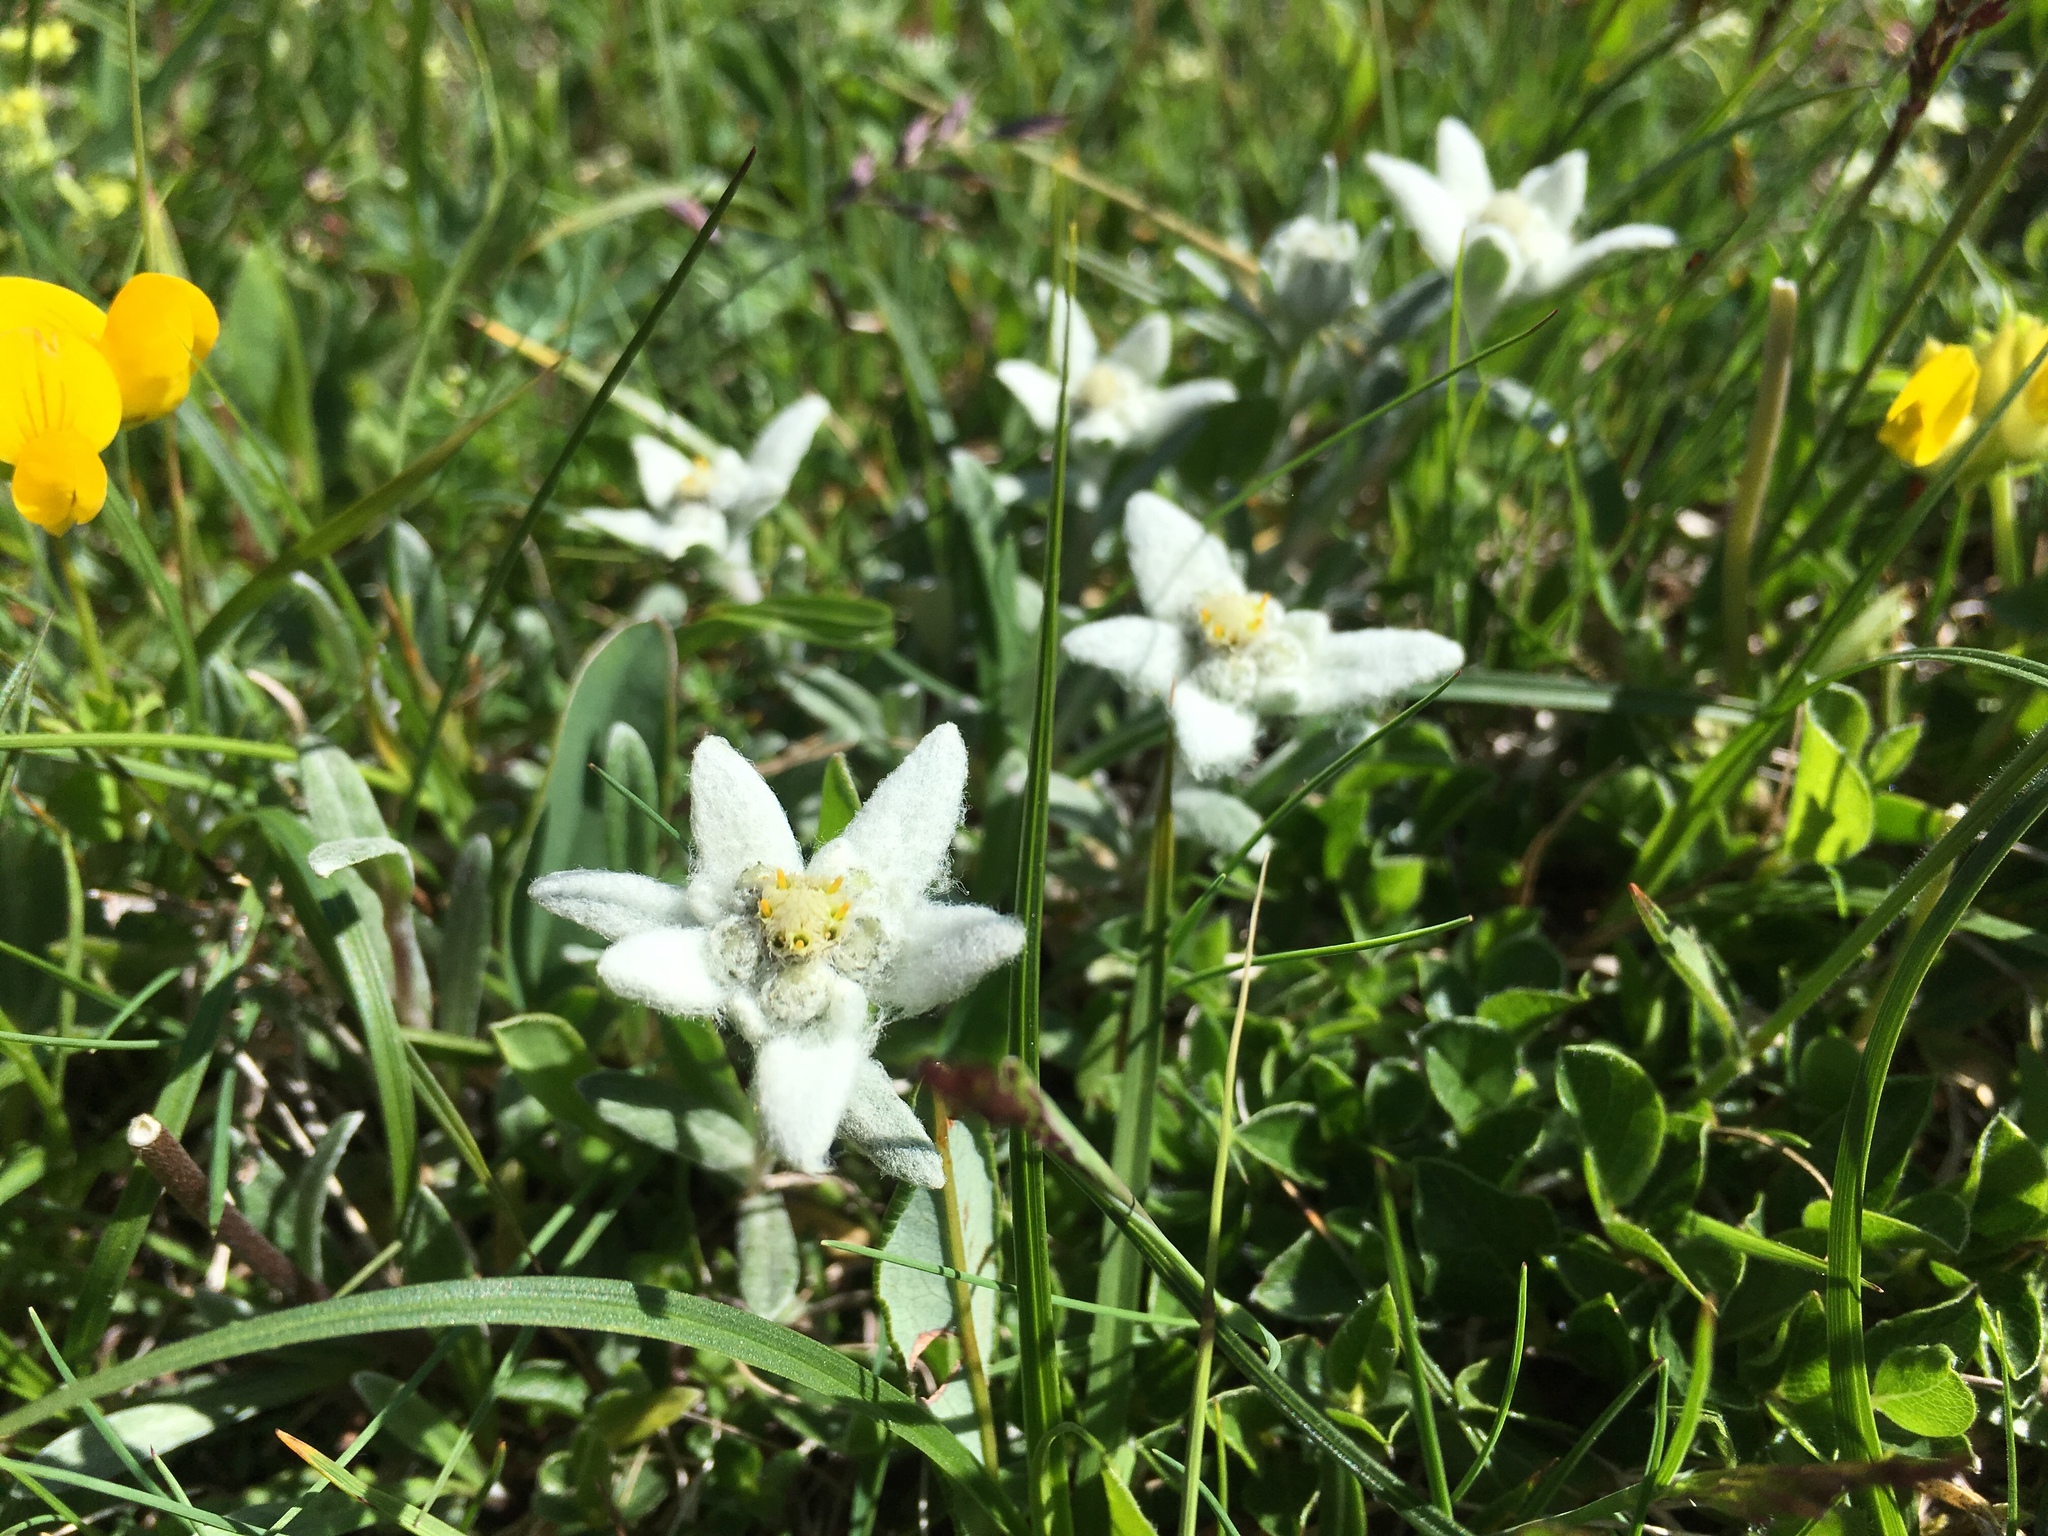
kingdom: Plantae
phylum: Tracheophyta
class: Magnoliopsida
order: Asterales
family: Asteraceae
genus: Leontopodium
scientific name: Leontopodium nivale
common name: Edelweiss
